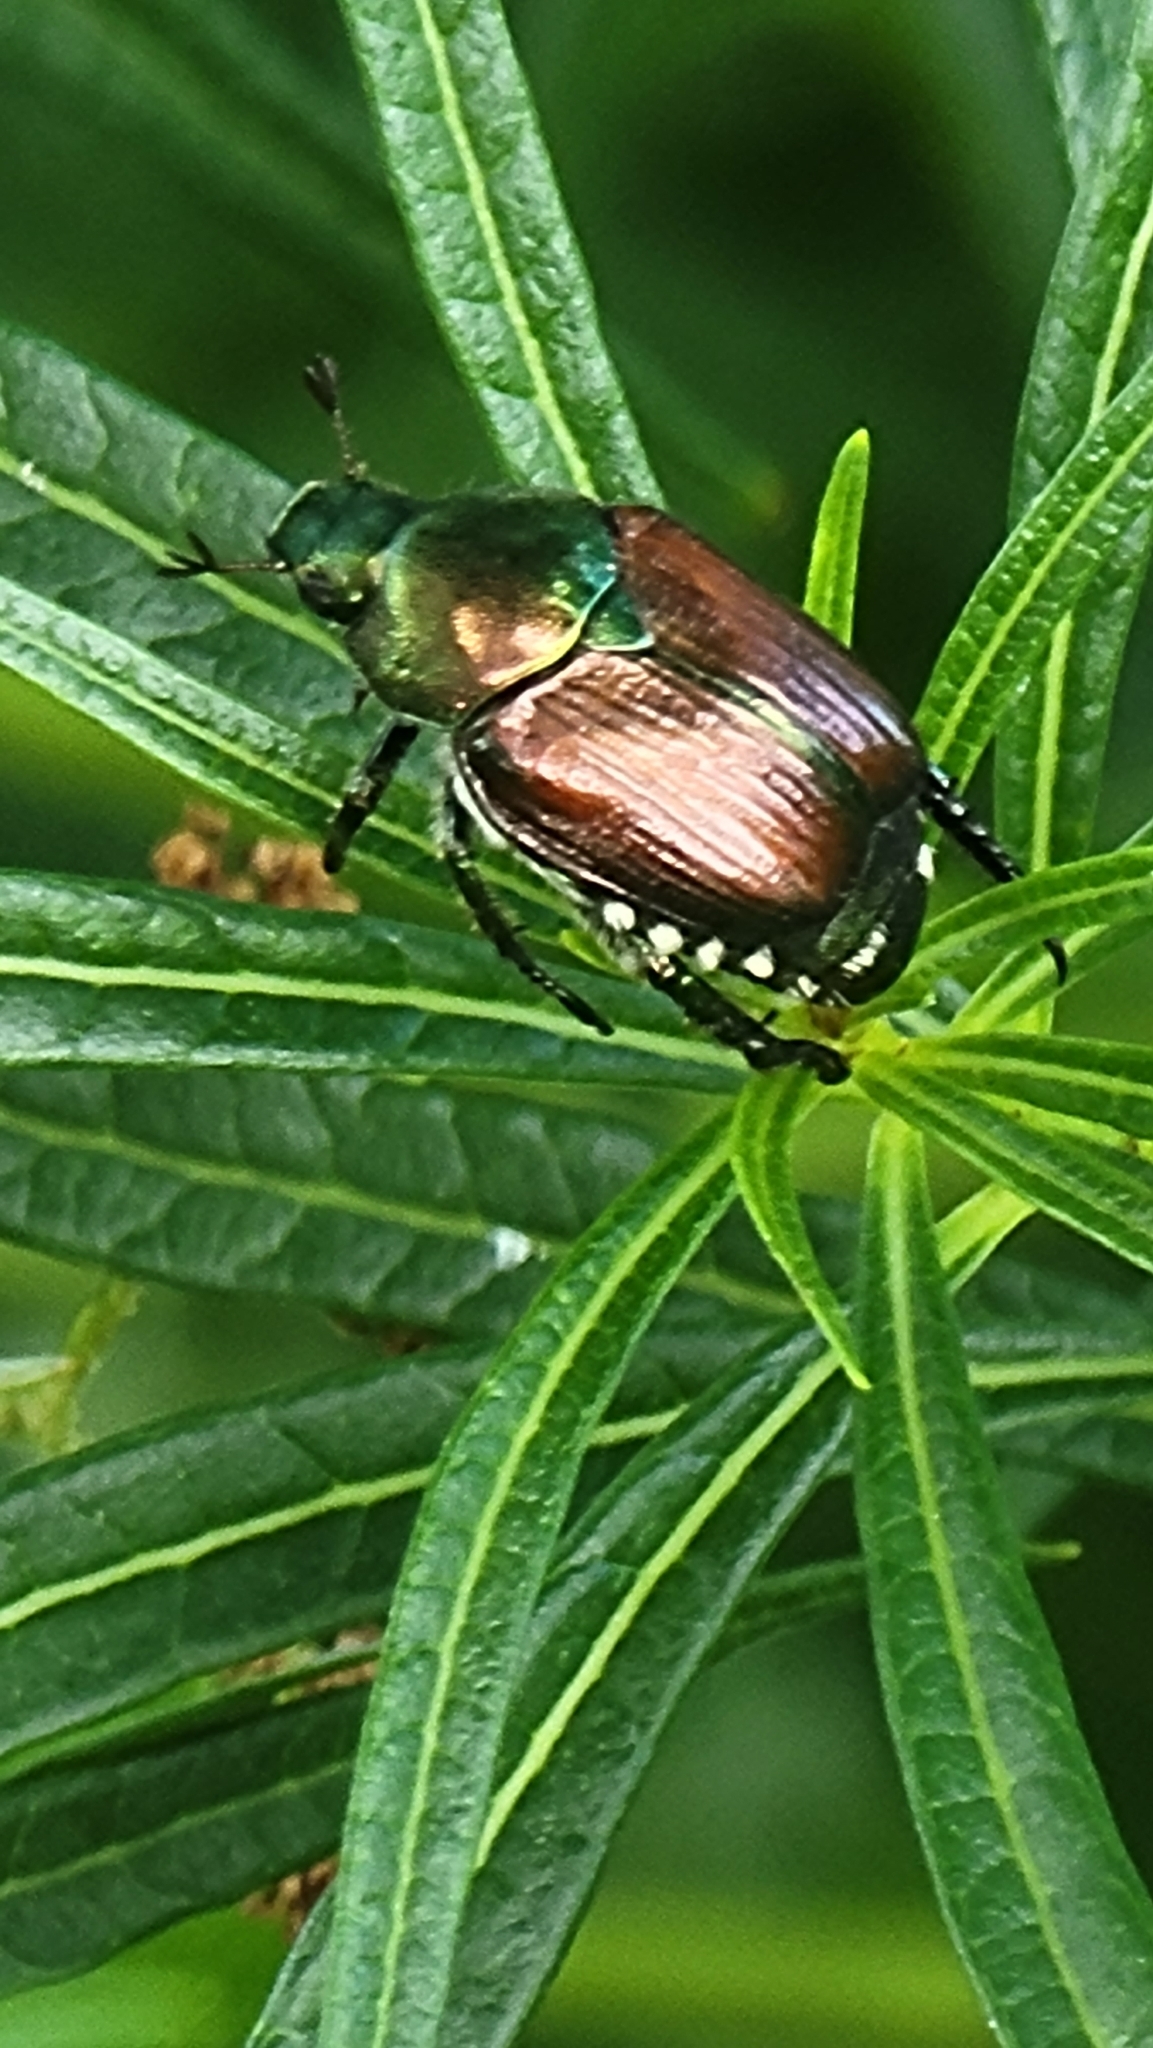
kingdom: Animalia
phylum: Arthropoda
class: Insecta
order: Coleoptera
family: Scarabaeidae
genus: Popillia
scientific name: Popillia japonica
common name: Japanese beetle
